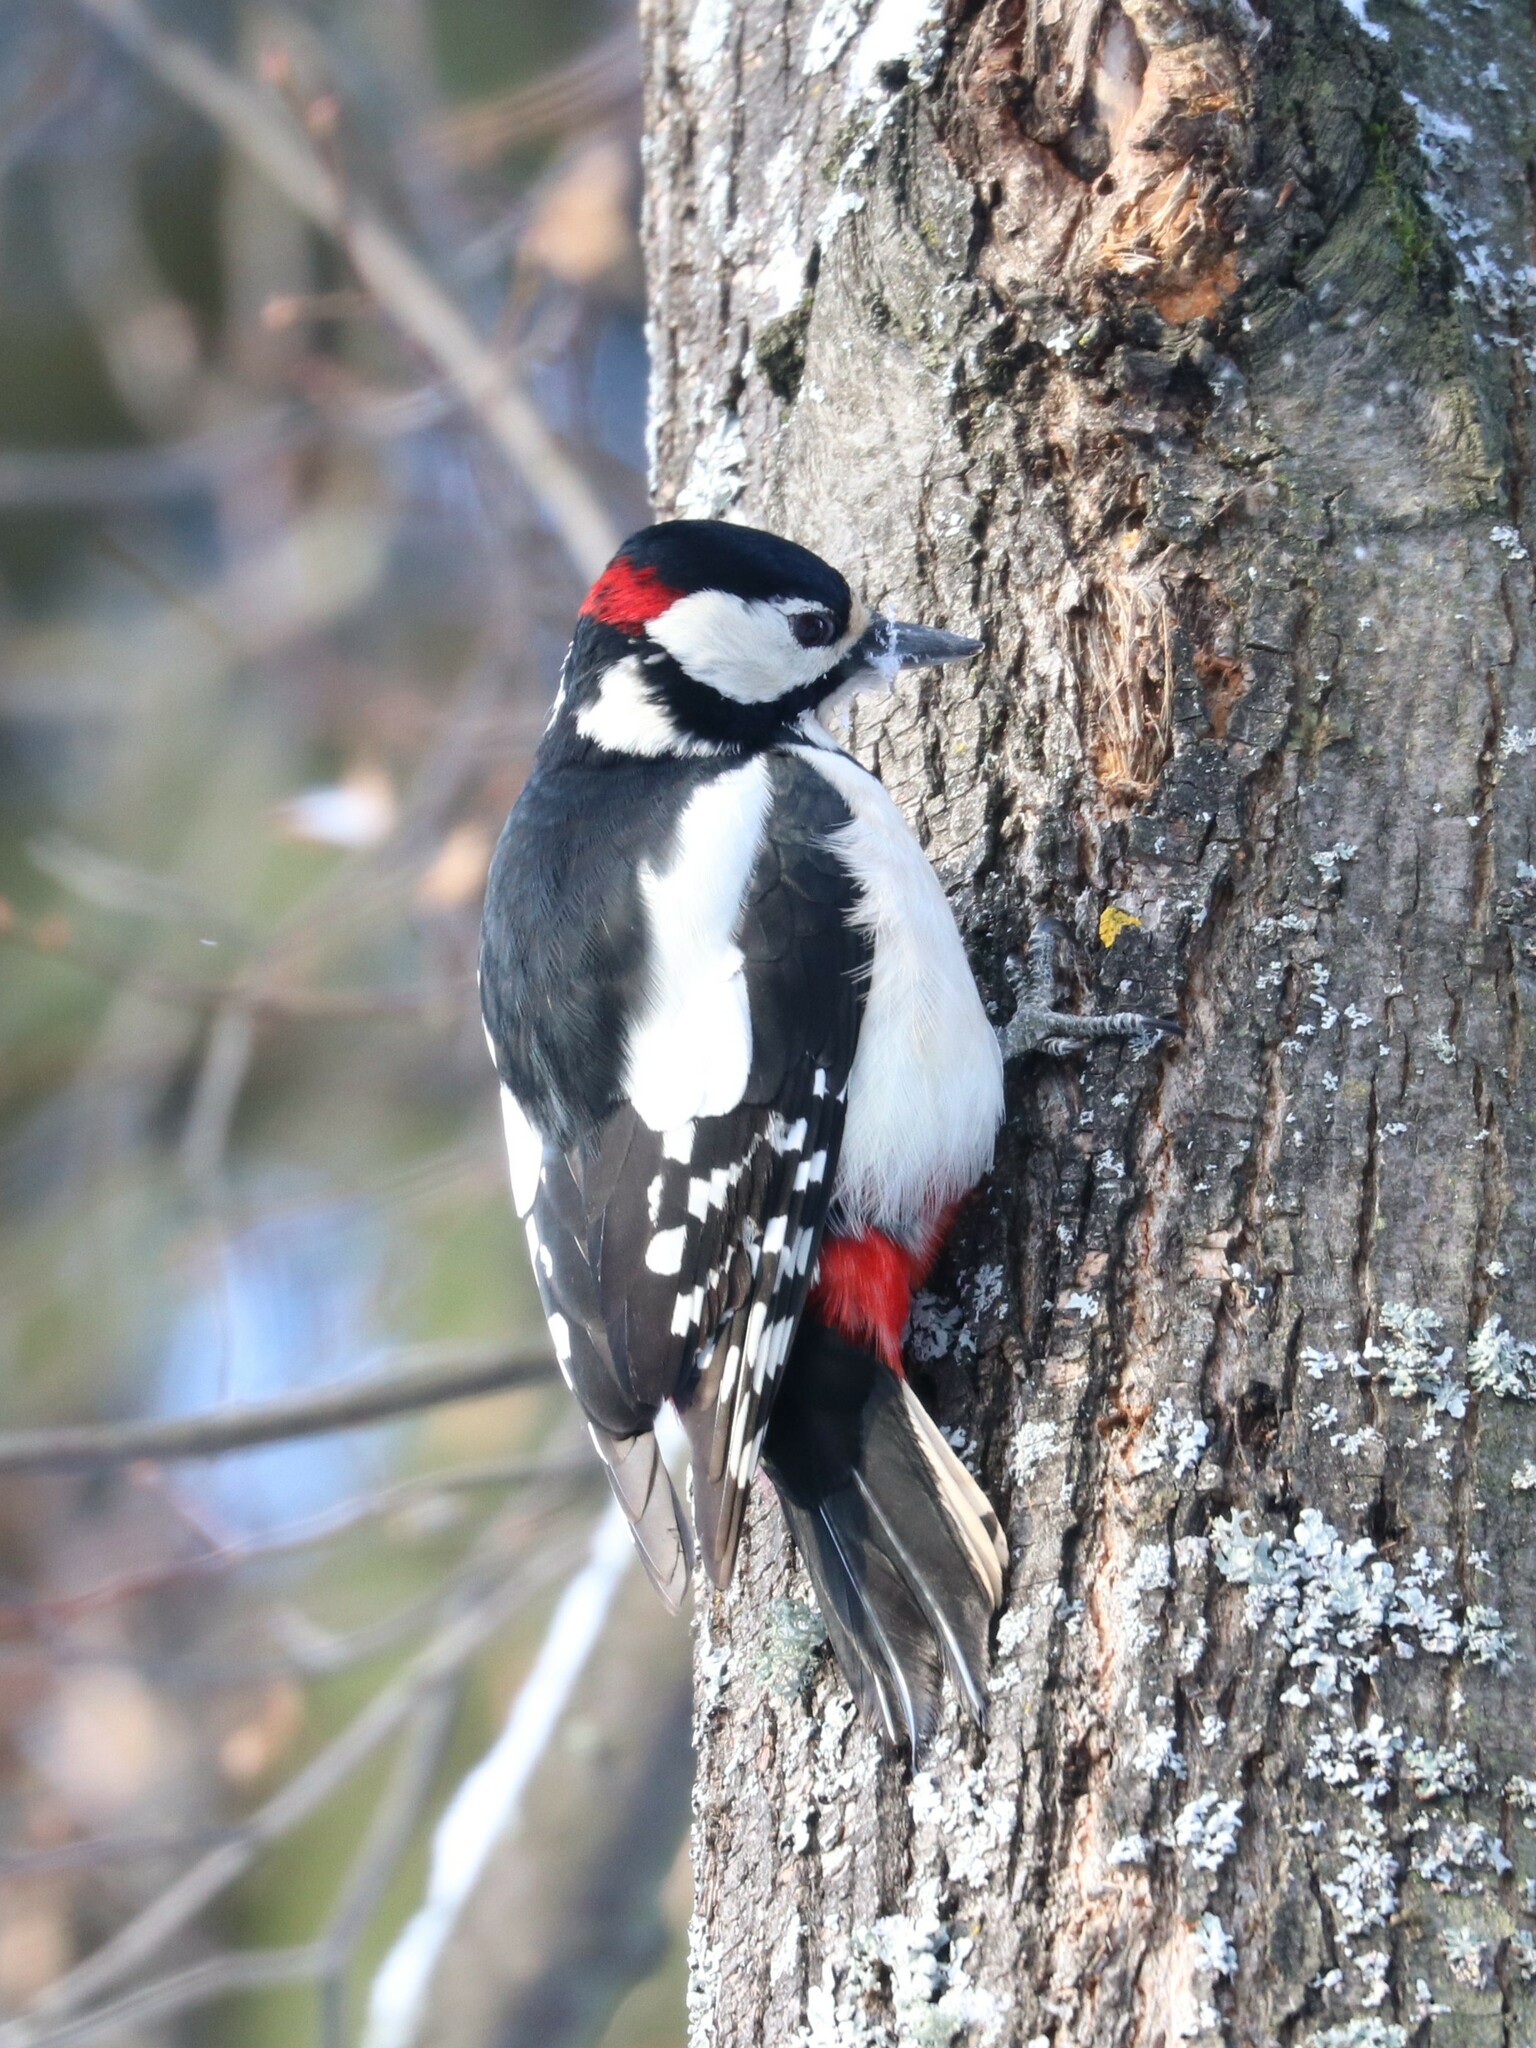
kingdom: Animalia
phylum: Chordata
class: Aves
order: Piciformes
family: Picidae
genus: Dendrocopos
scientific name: Dendrocopos major
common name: Great spotted woodpecker
